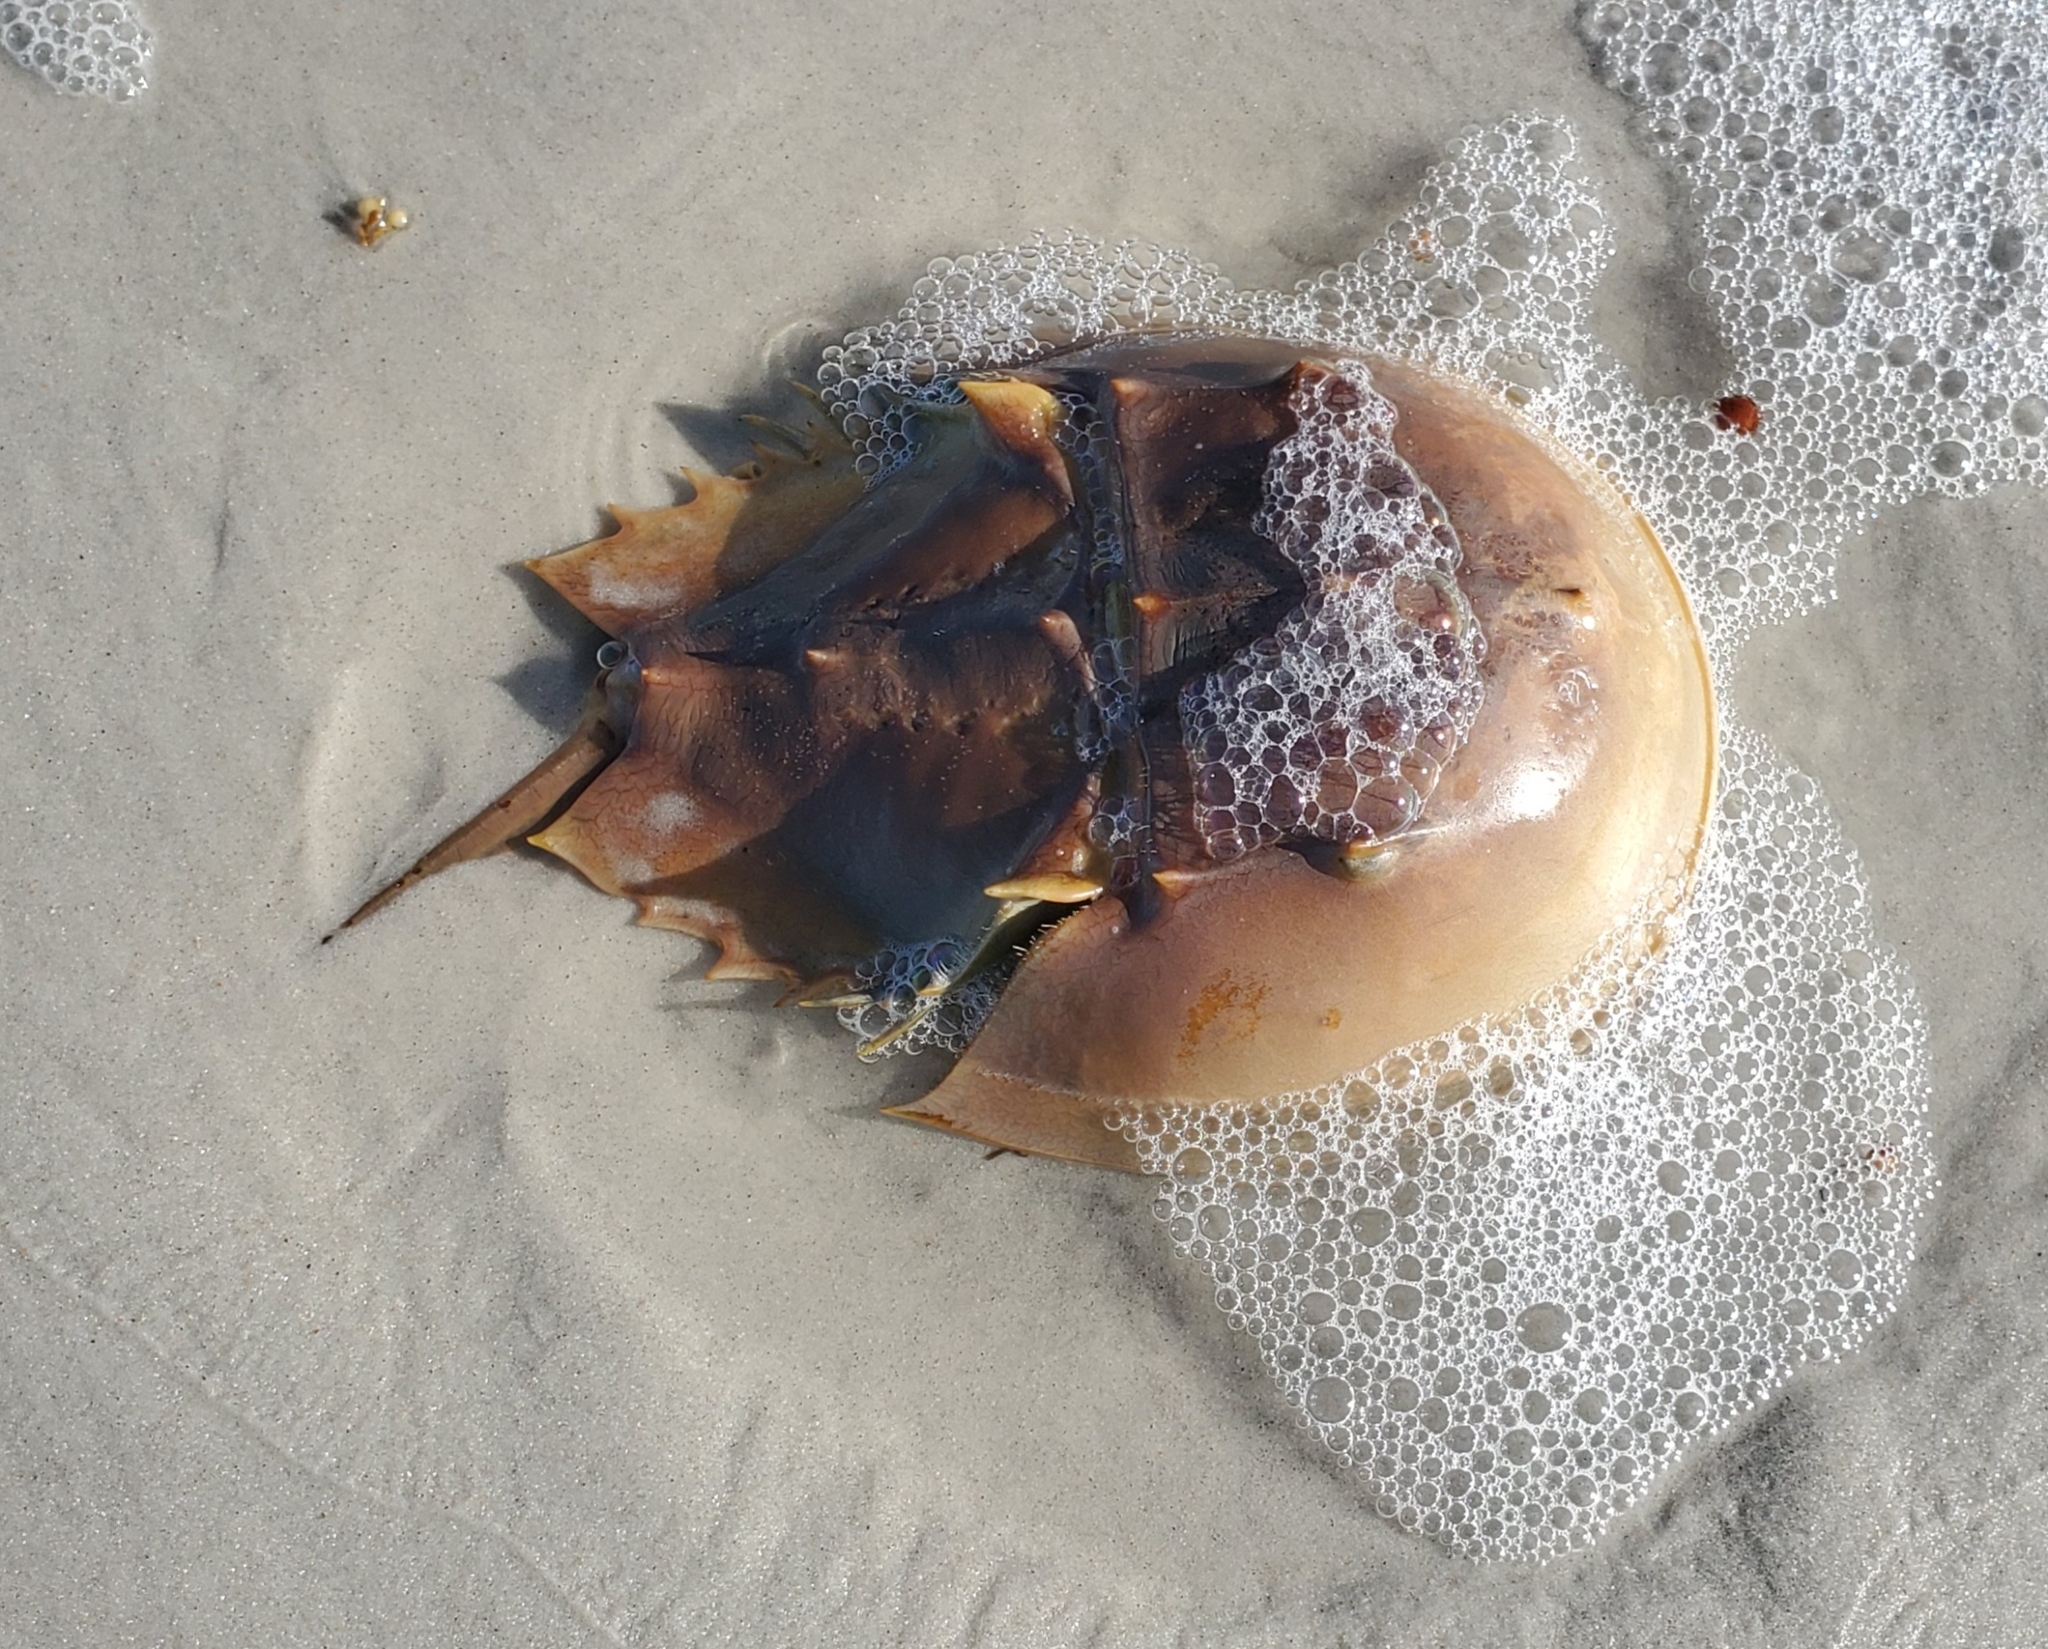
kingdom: Animalia
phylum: Arthropoda
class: Merostomata
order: Xiphosurida
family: Limulidae
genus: Limulus
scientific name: Limulus polyphemus
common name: Horseshoe crab
